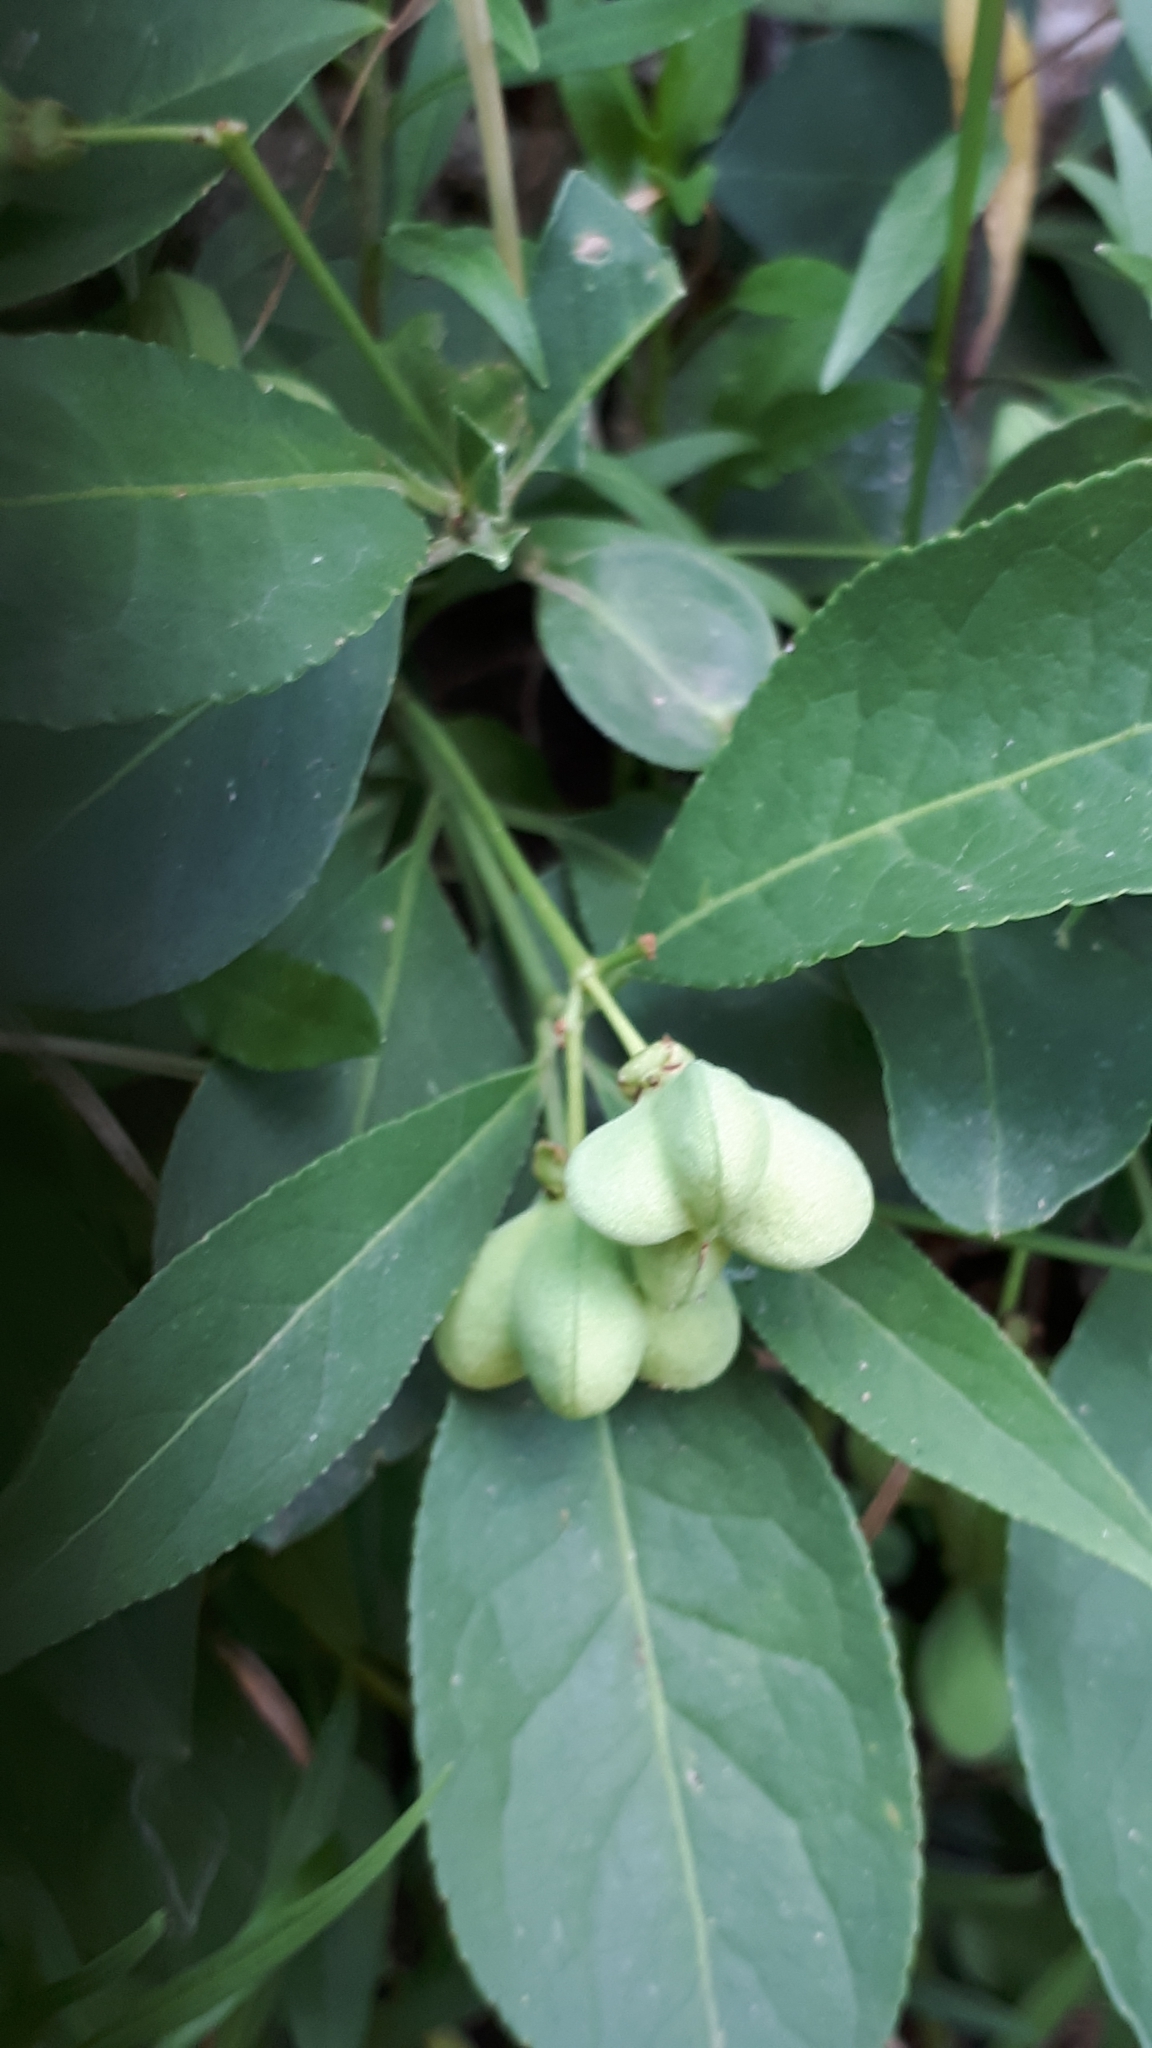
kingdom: Plantae
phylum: Tracheophyta
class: Magnoliopsida
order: Celastrales
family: Celastraceae
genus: Euonymus
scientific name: Euonymus europaeus
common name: Spindle
